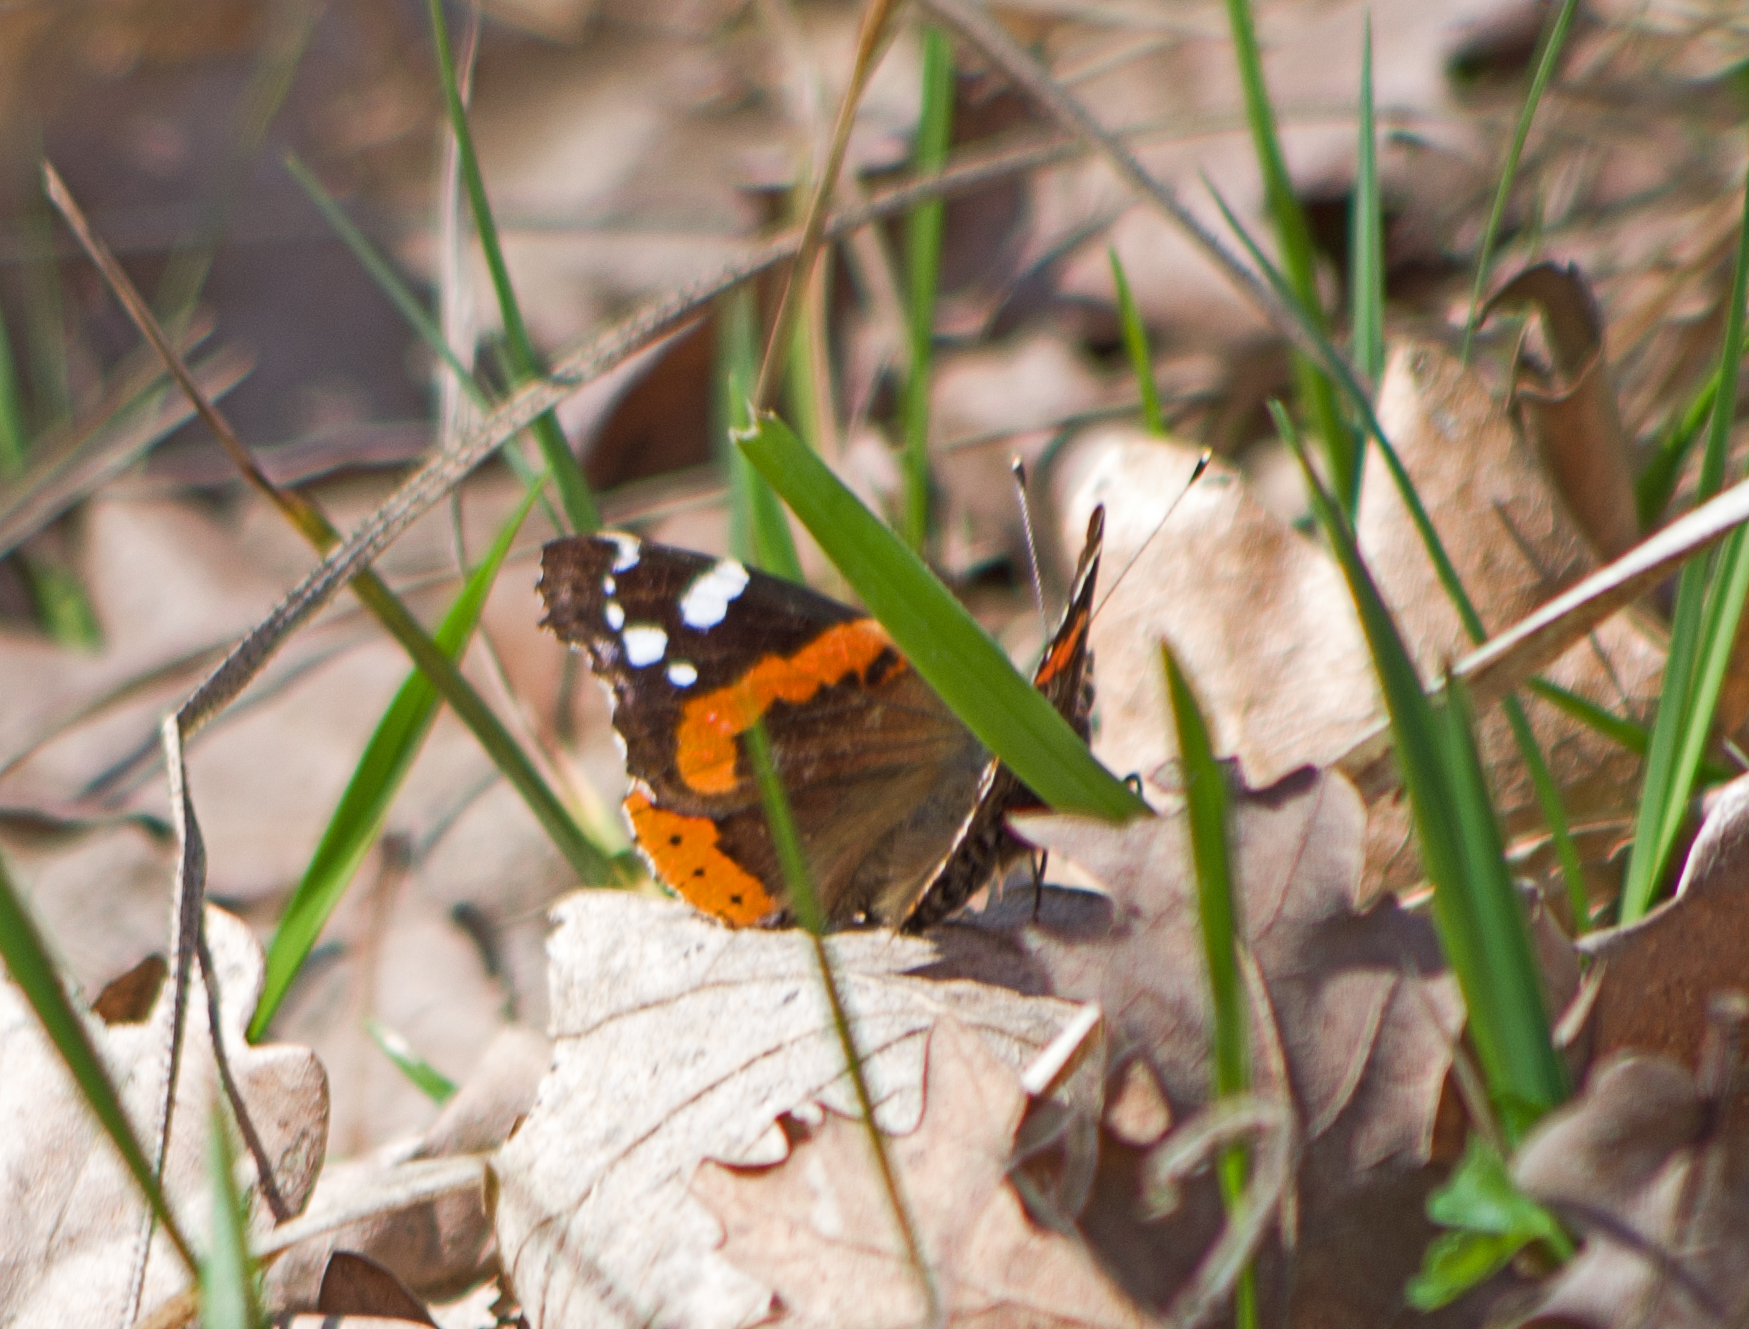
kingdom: Animalia
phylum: Arthropoda
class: Insecta
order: Lepidoptera
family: Nymphalidae
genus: Vanessa
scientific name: Vanessa atalanta
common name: Red admiral
